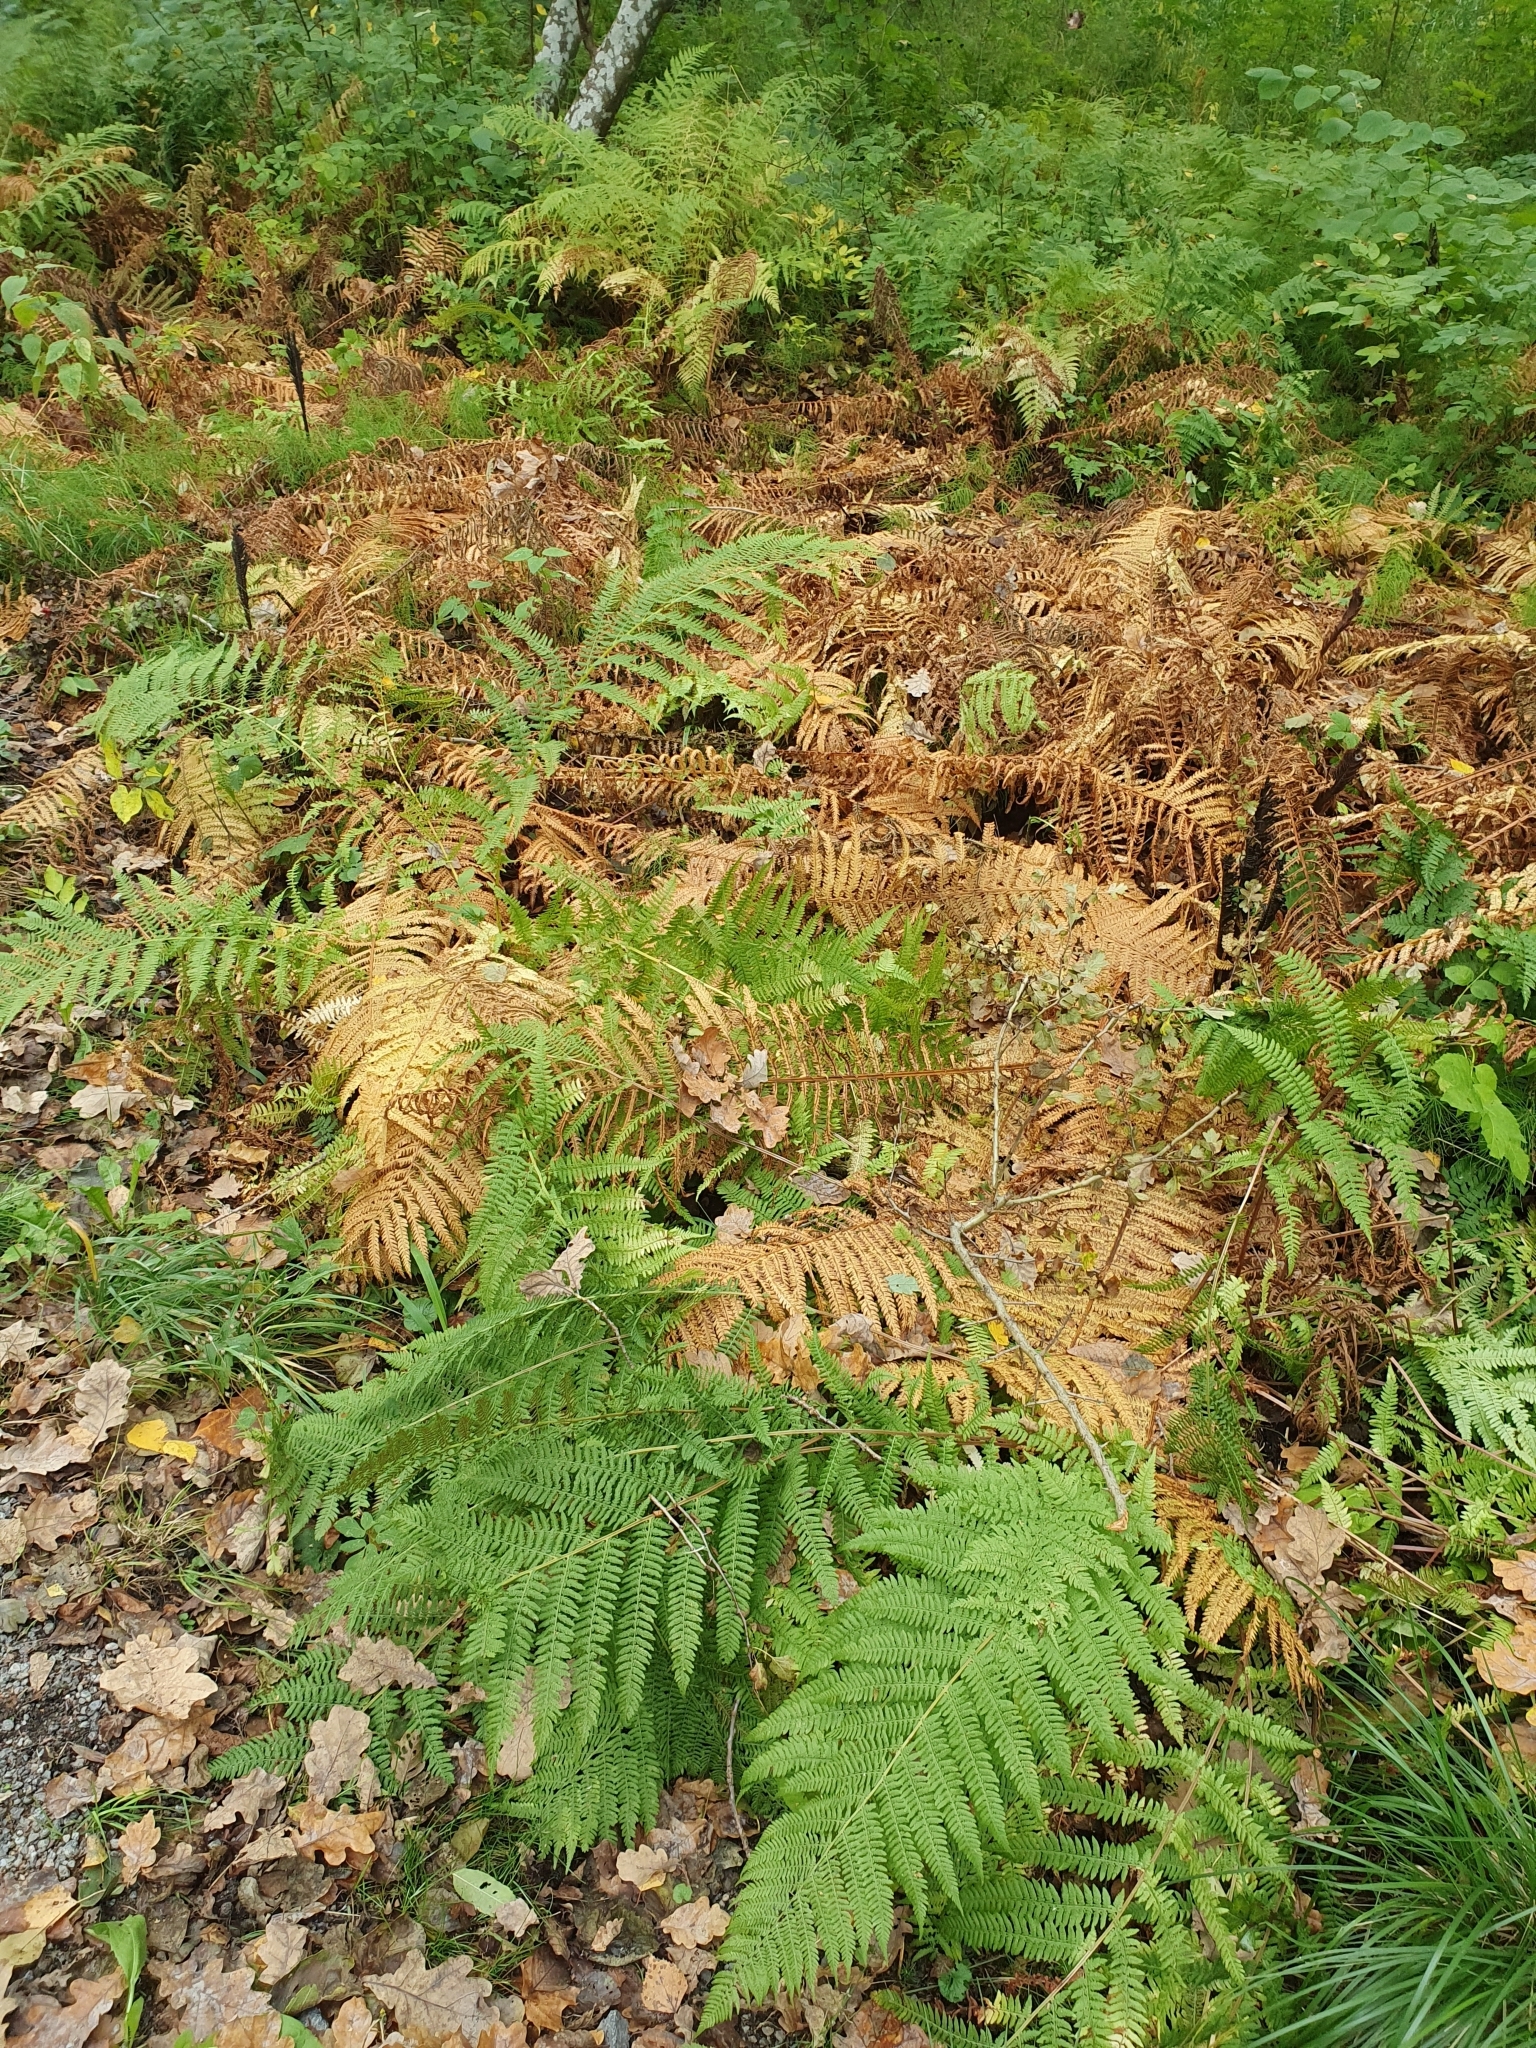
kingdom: Plantae
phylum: Tracheophyta
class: Polypodiopsida
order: Polypodiales
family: Onocleaceae
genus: Matteuccia
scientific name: Matteuccia struthiopteris
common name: Ostrich fern
